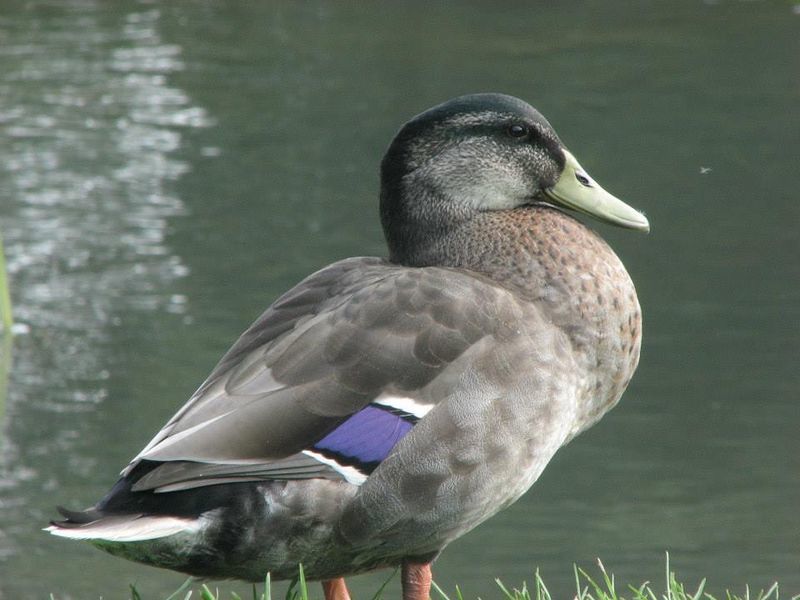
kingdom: Animalia
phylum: Chordata
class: Aves
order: Anseriformes
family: Anatidae
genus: Anas
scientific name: Anas platyrhynchos
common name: Mallard
